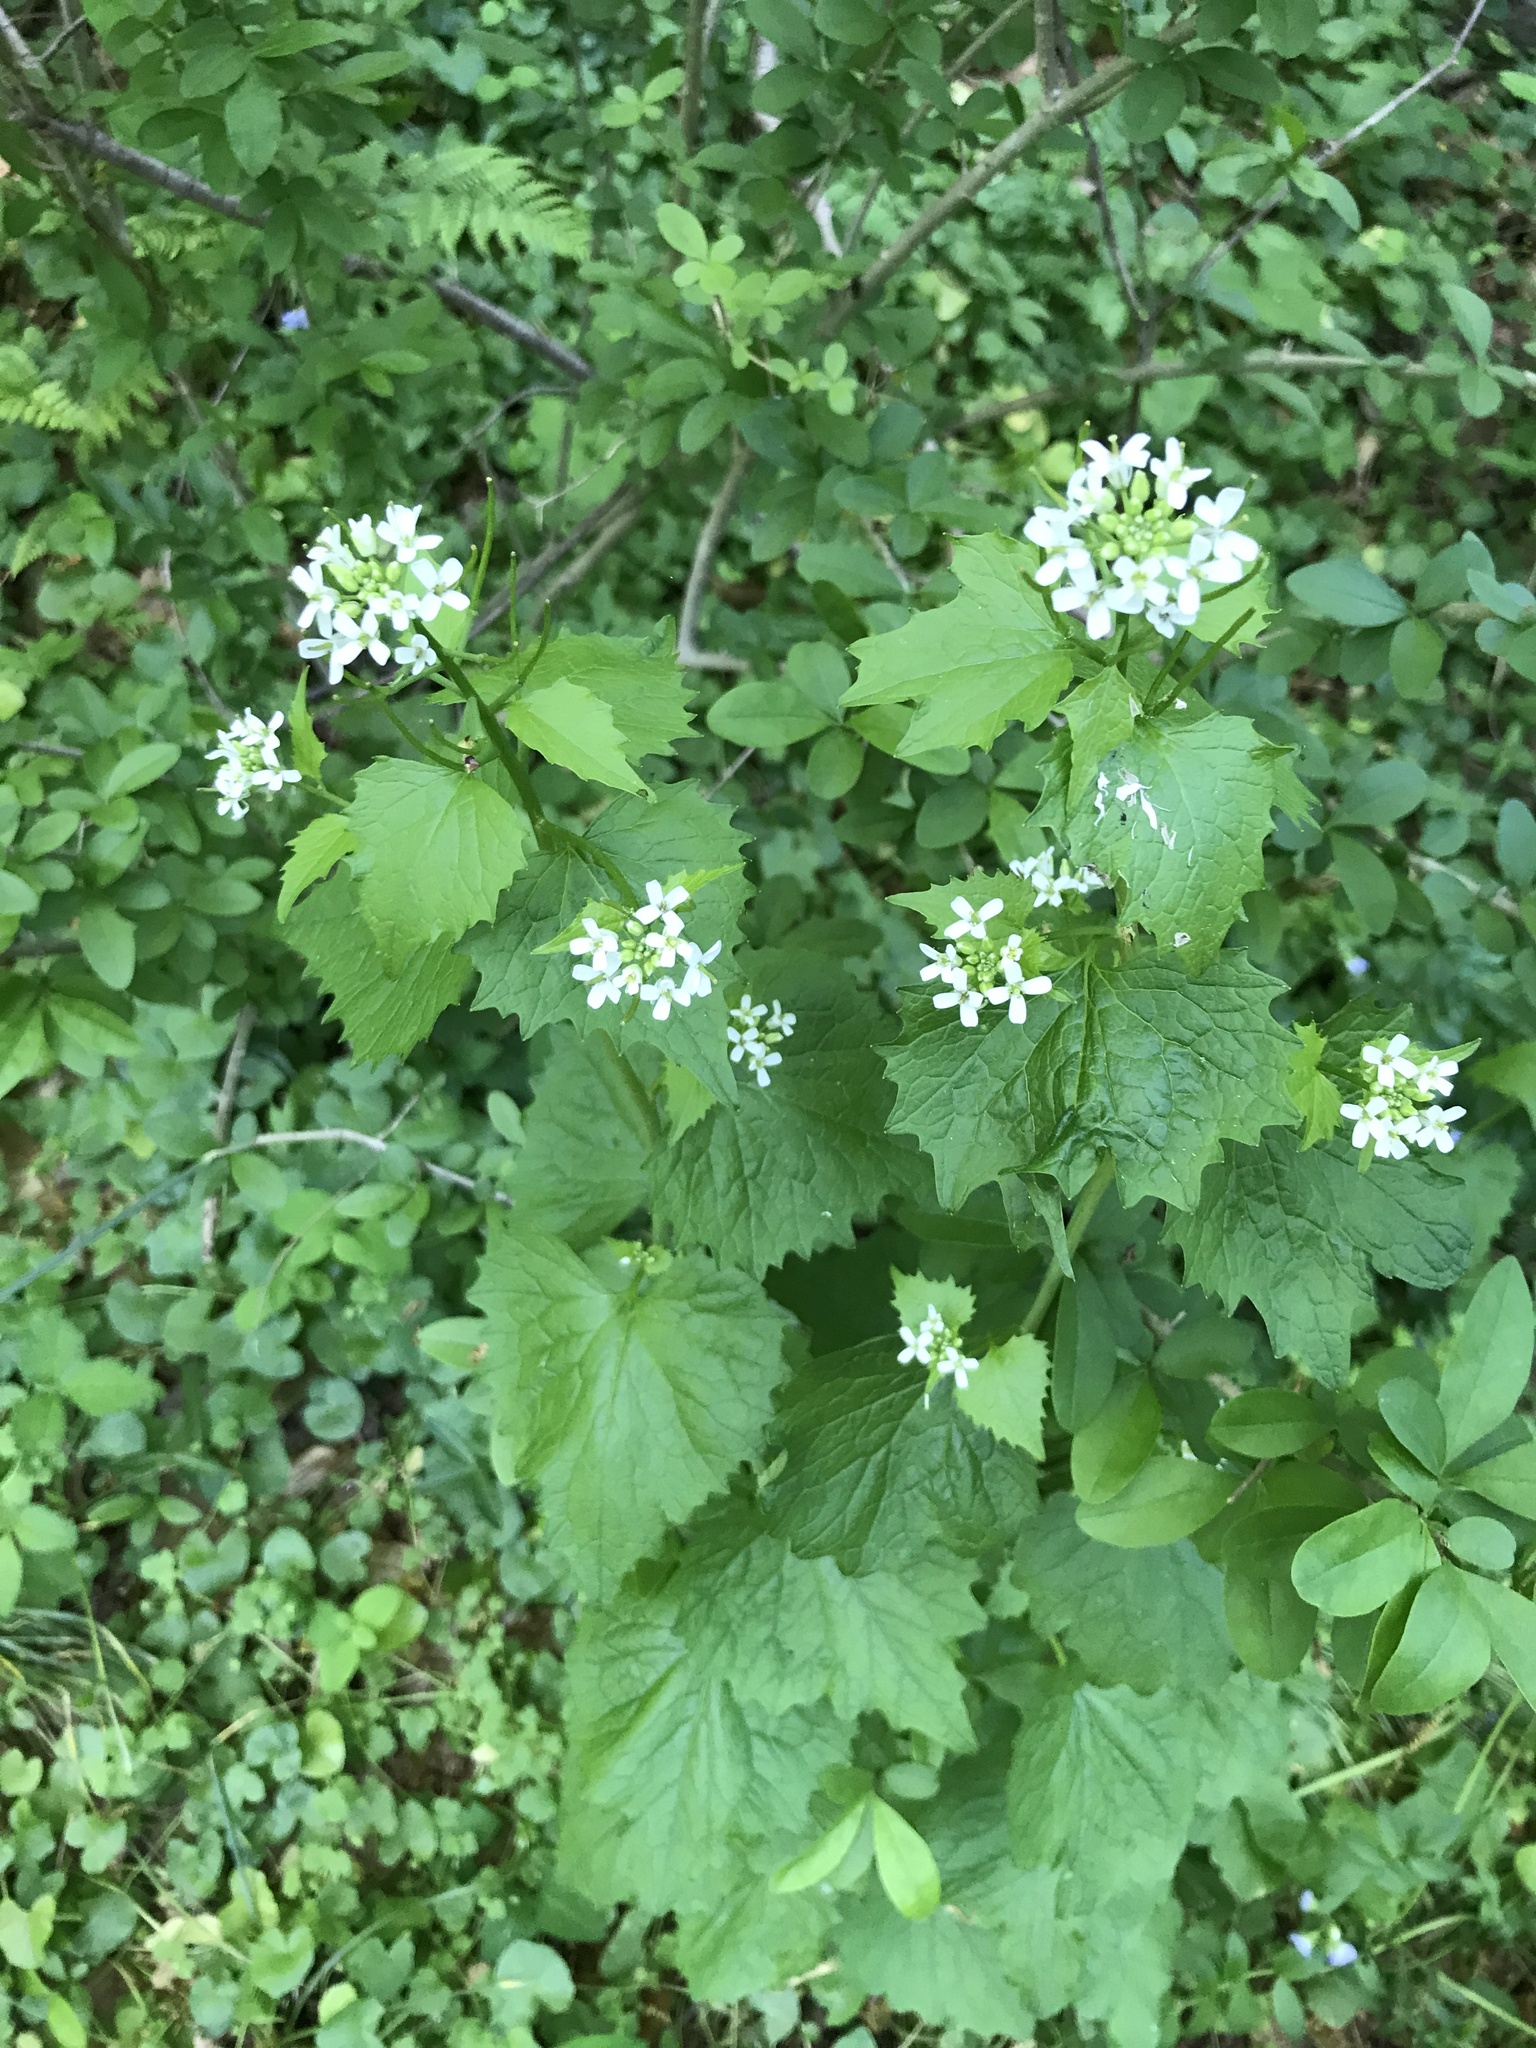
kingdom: Plantae
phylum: Tracheophyta
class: Magnoliopsida
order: Brassicales
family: Brassicaceae
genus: Alliaria
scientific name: Alliaria petiolata
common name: Garlic mustard
